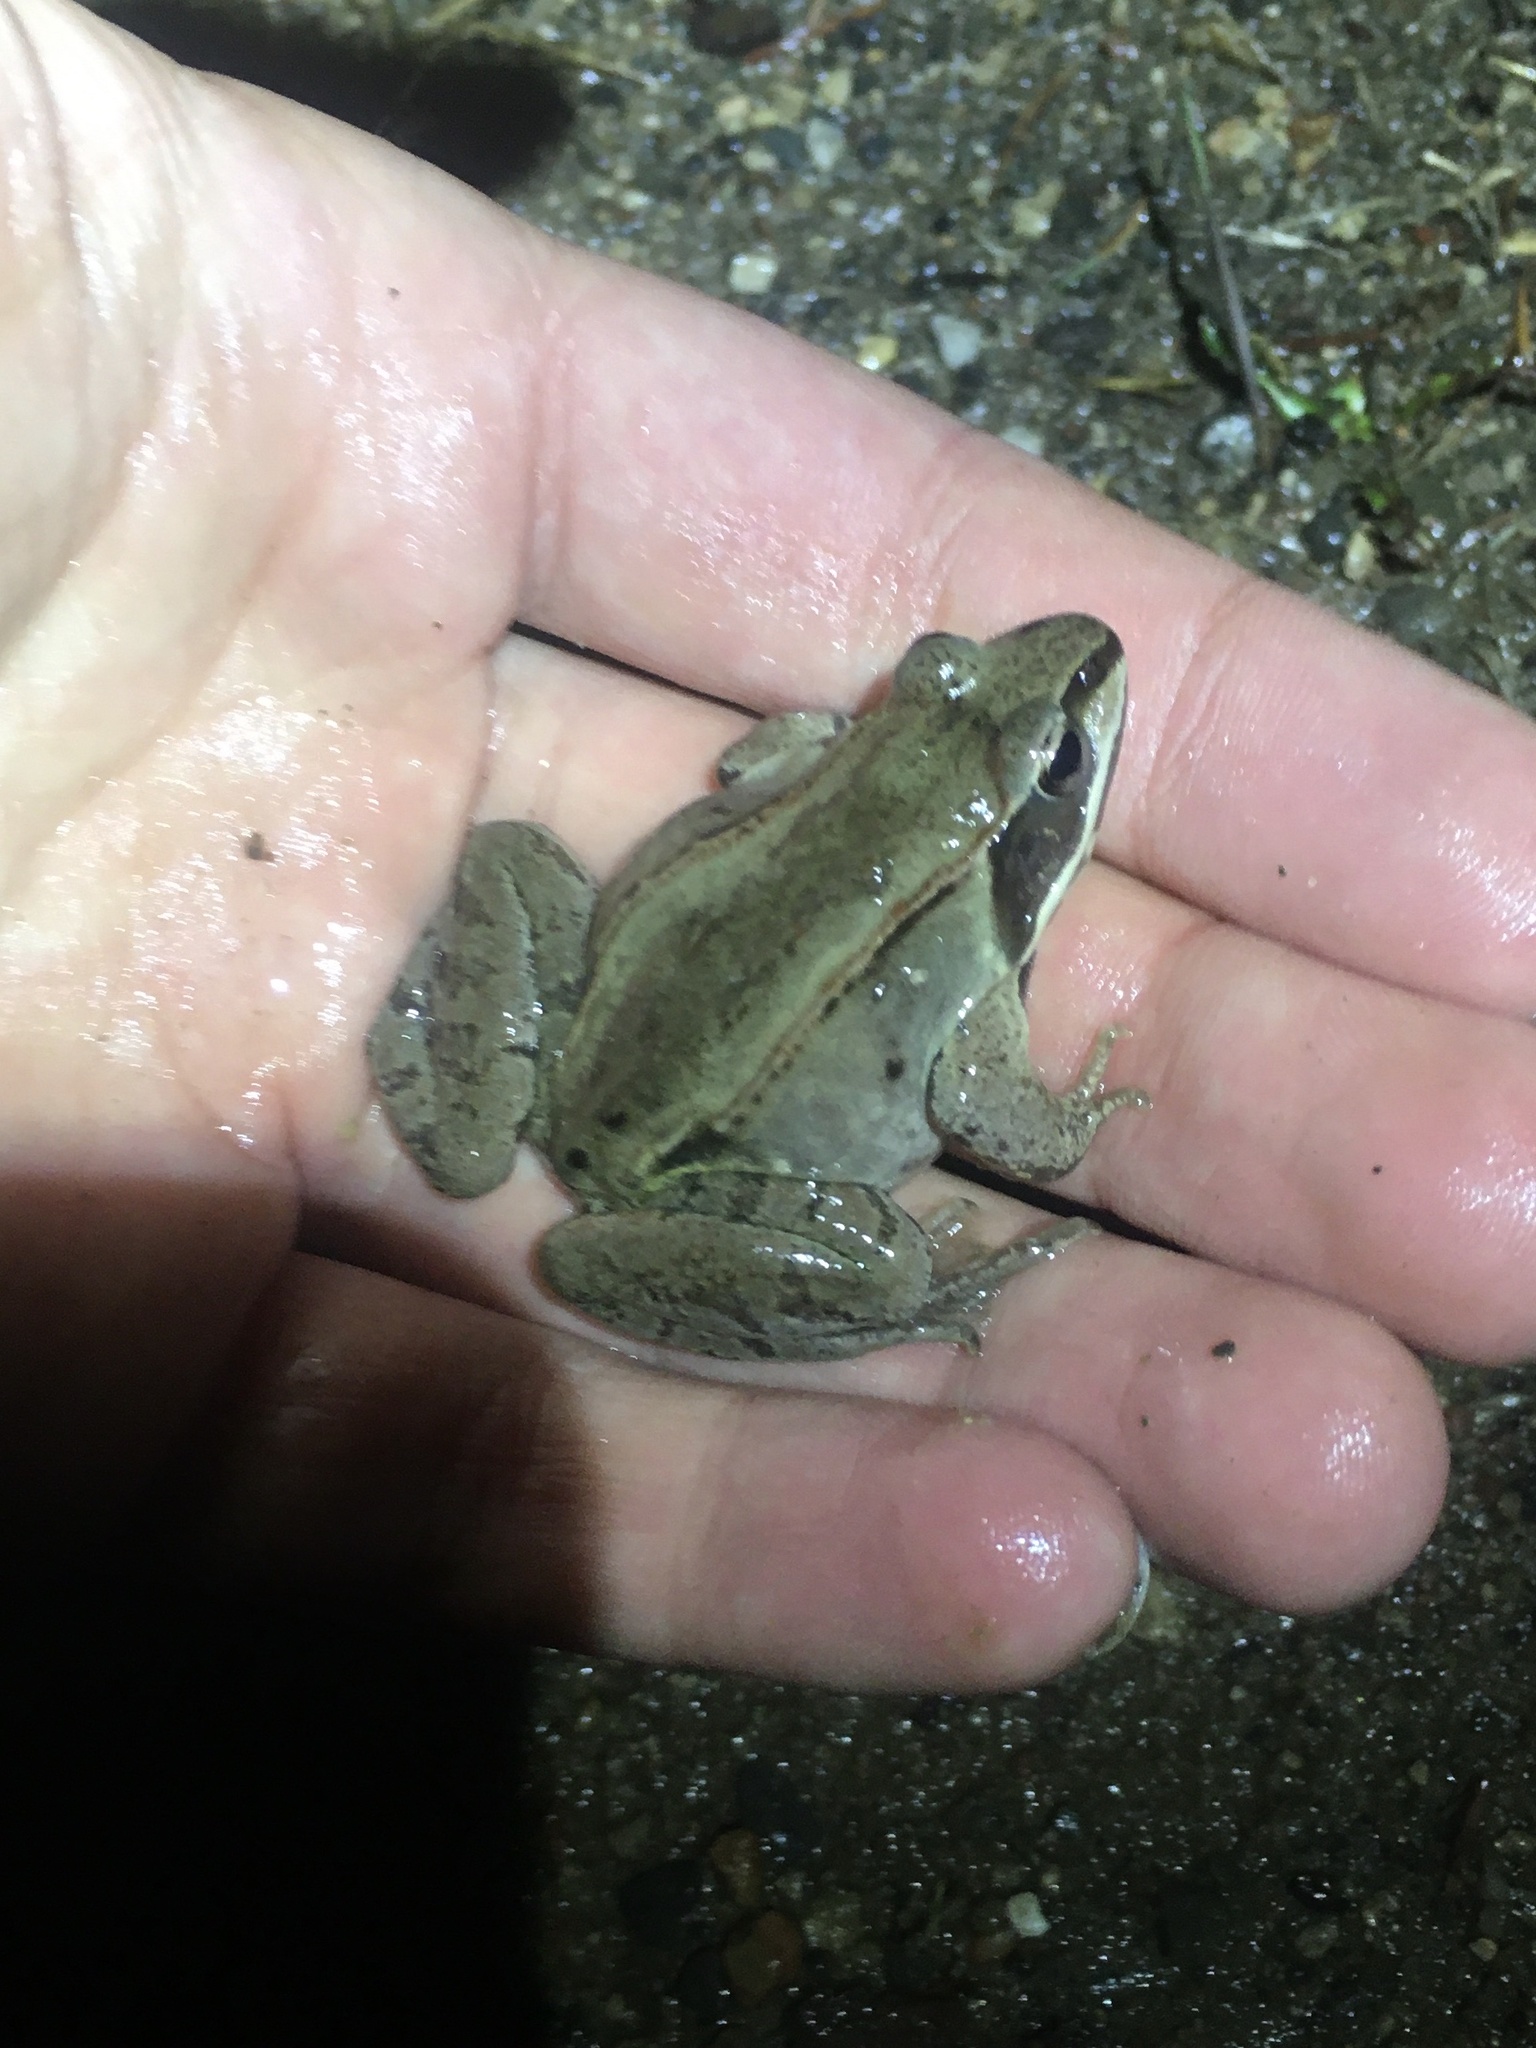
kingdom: Animalia
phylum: Chordata
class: Amphibia
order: Anura
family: Ranidae
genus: Lithobates
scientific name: Lithobates sylvaticus
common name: Wood frog
